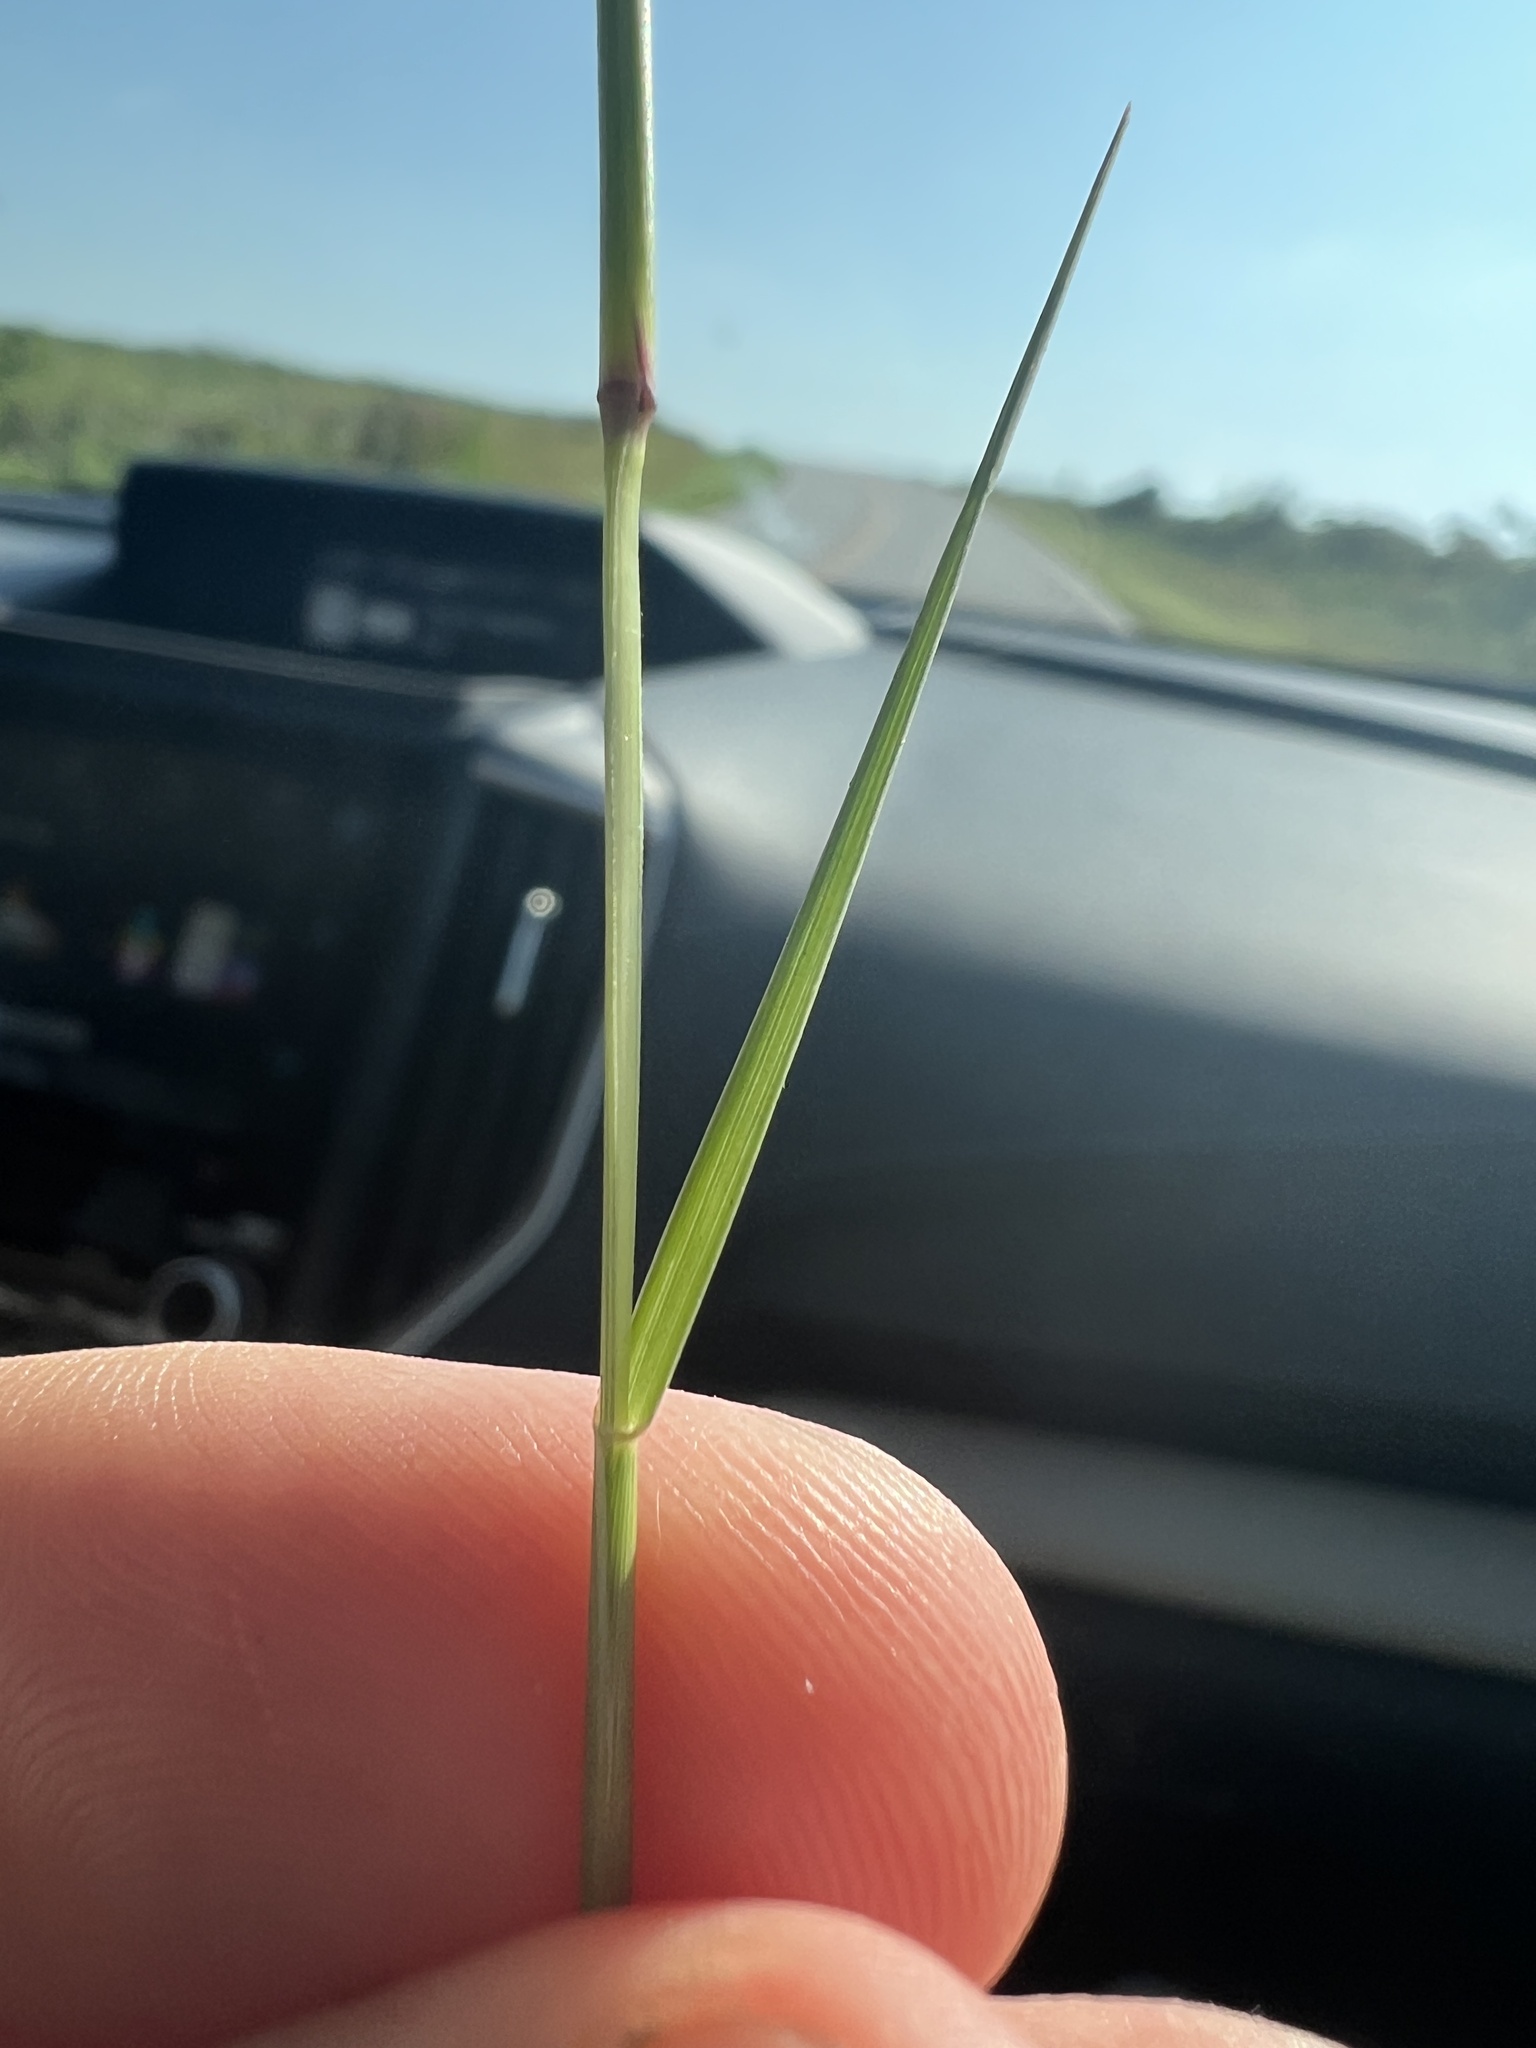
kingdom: Plantae
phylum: Tracheophyta
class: Liliopsida
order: Poales
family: Poaceae
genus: Sporobolus
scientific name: Sporobolus vaginiflorus
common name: Poverty dropseed
